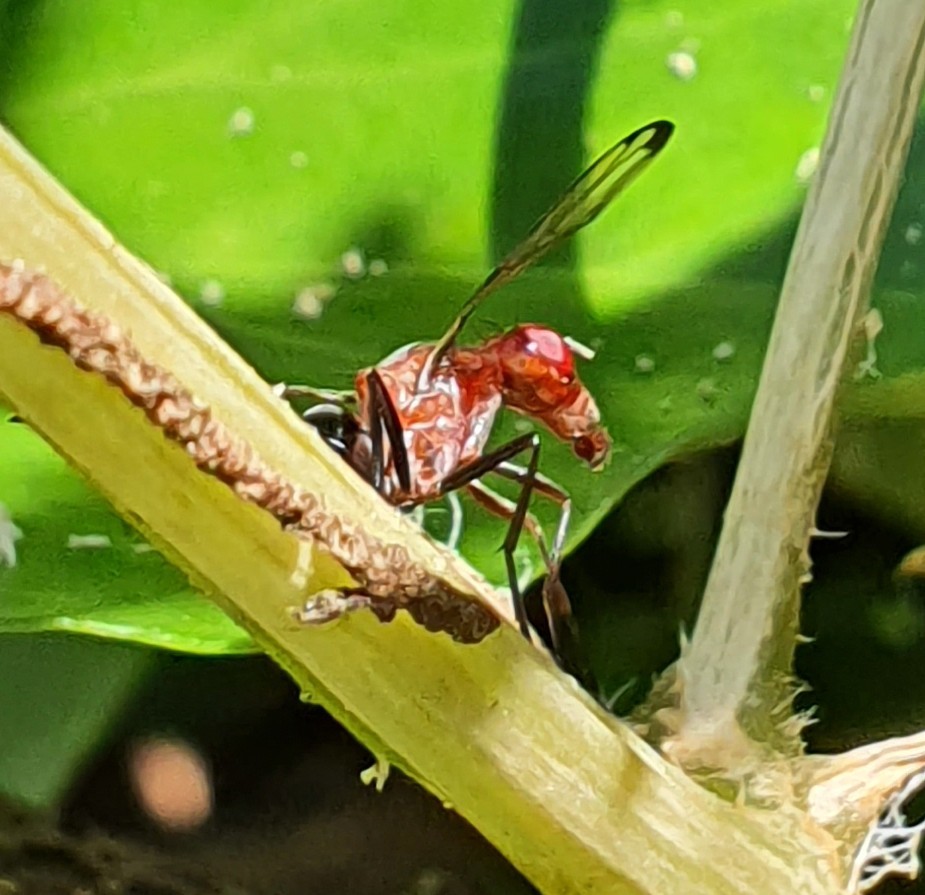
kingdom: Animalia
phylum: Arthropoda
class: Insecta
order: Diptera
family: Ulidiidae
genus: Cephalia
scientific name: Cephalia rufipes
